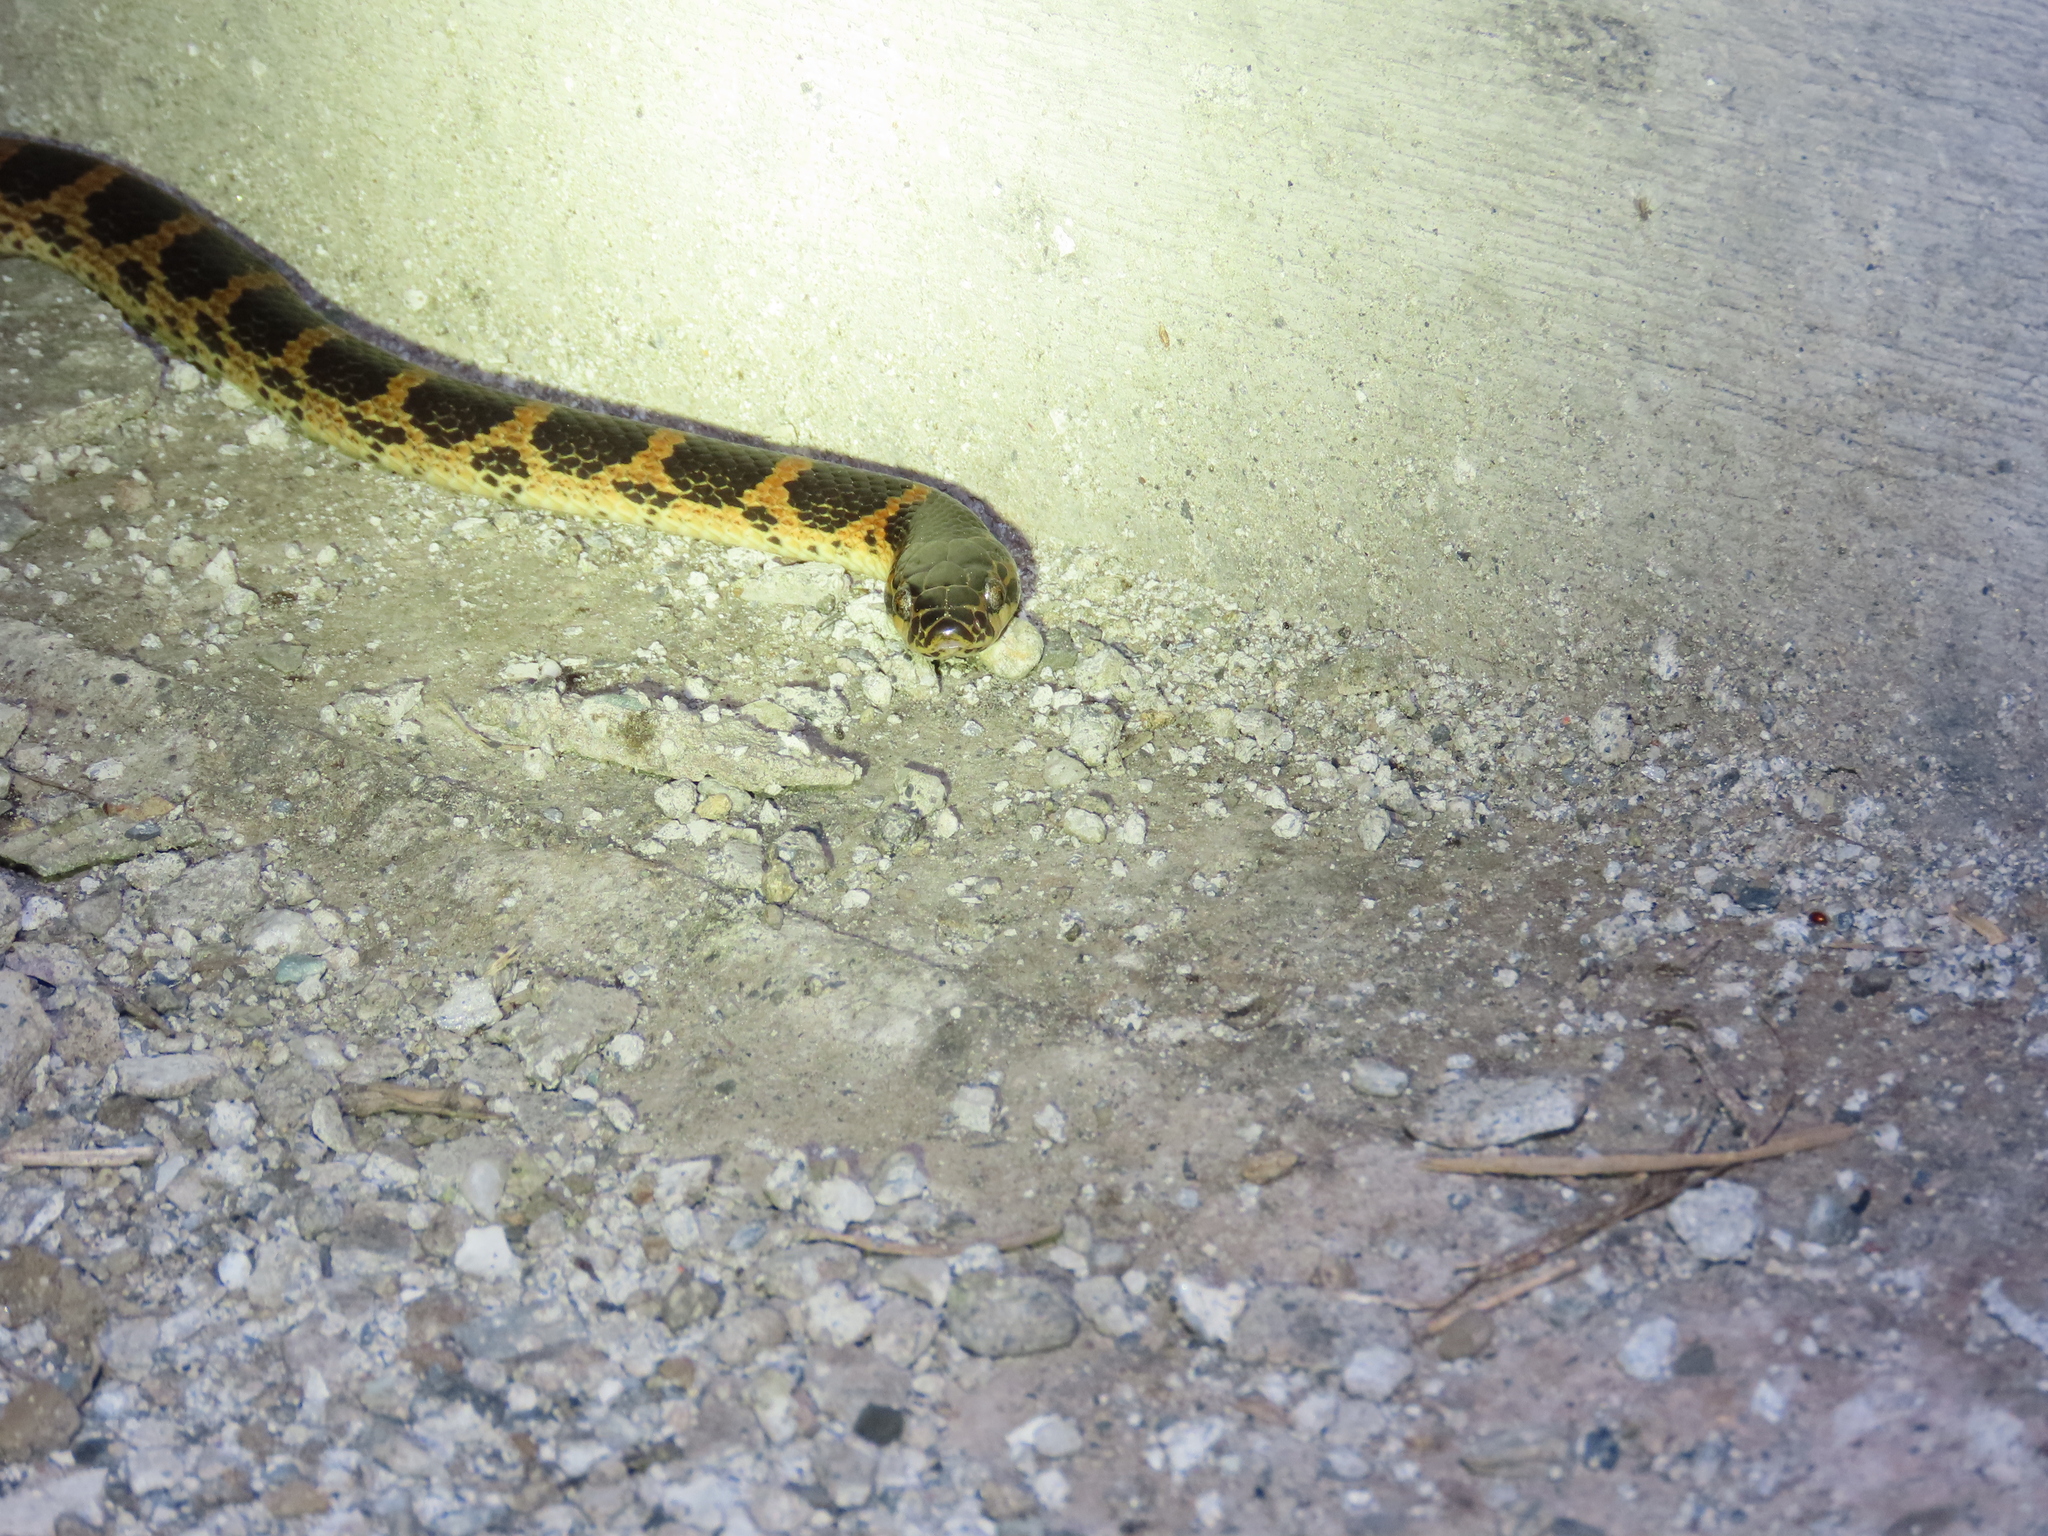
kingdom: Animalia
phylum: Chordata
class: Squamata
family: Colubridae
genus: Lycodon
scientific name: Lycodon rufozonatus
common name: Red-banded snake
